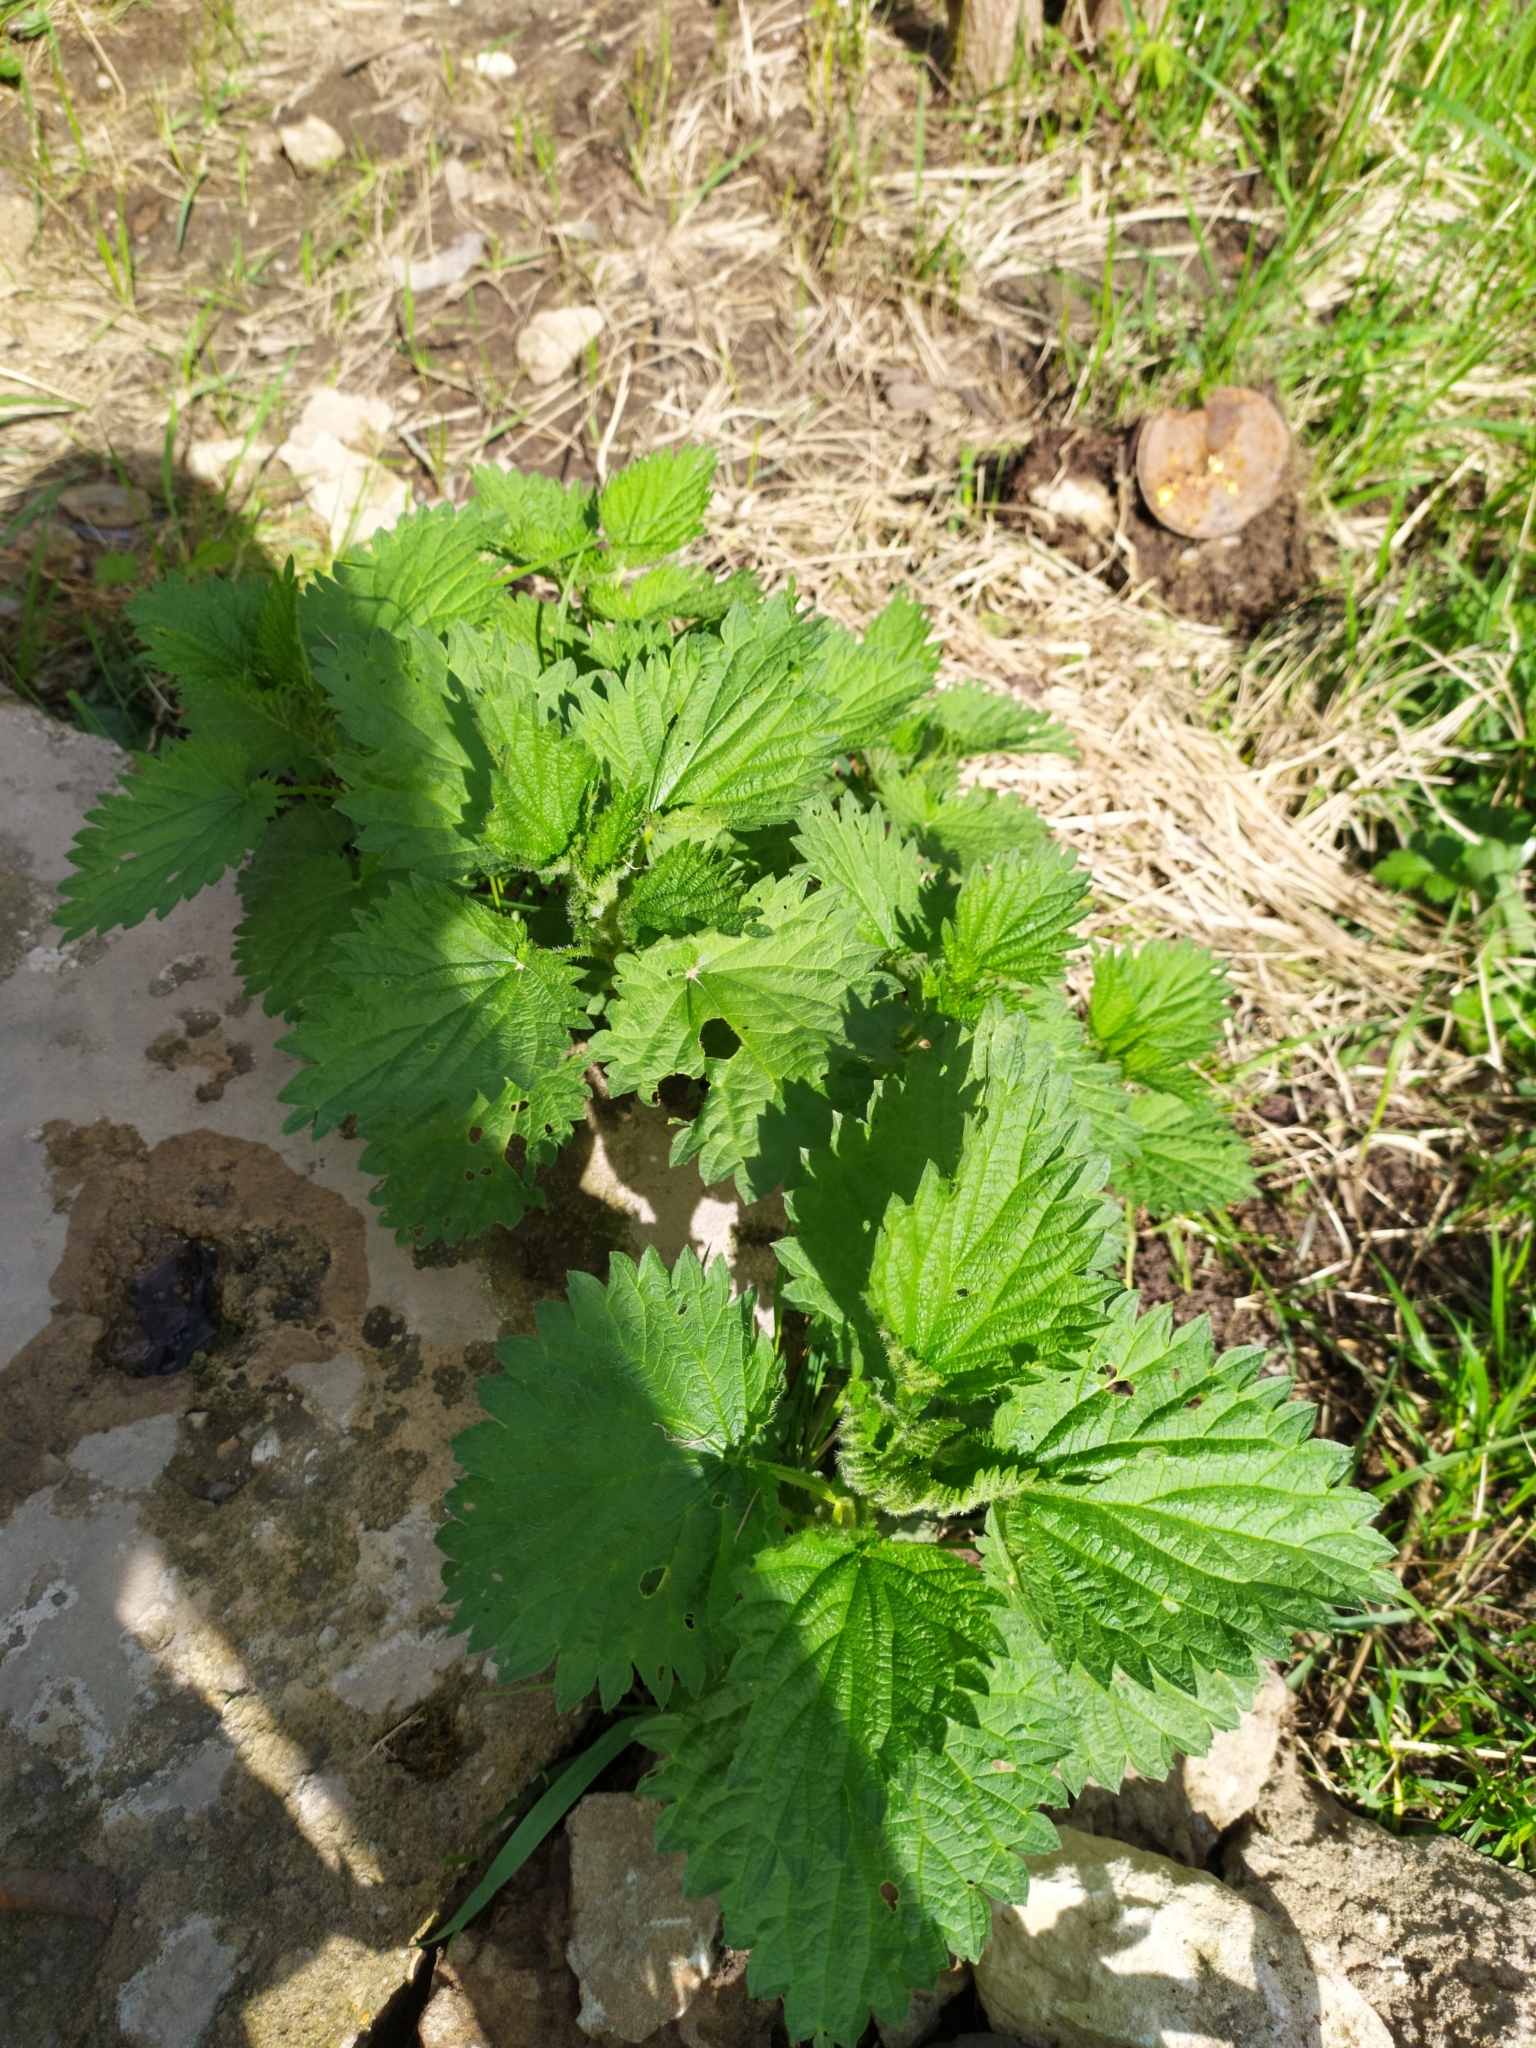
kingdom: Plantae
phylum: Tracheophyta
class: Magnoliopsida
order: Rosales
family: Urticaceae
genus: Urtica
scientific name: Urtica dioica
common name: Common nettle
